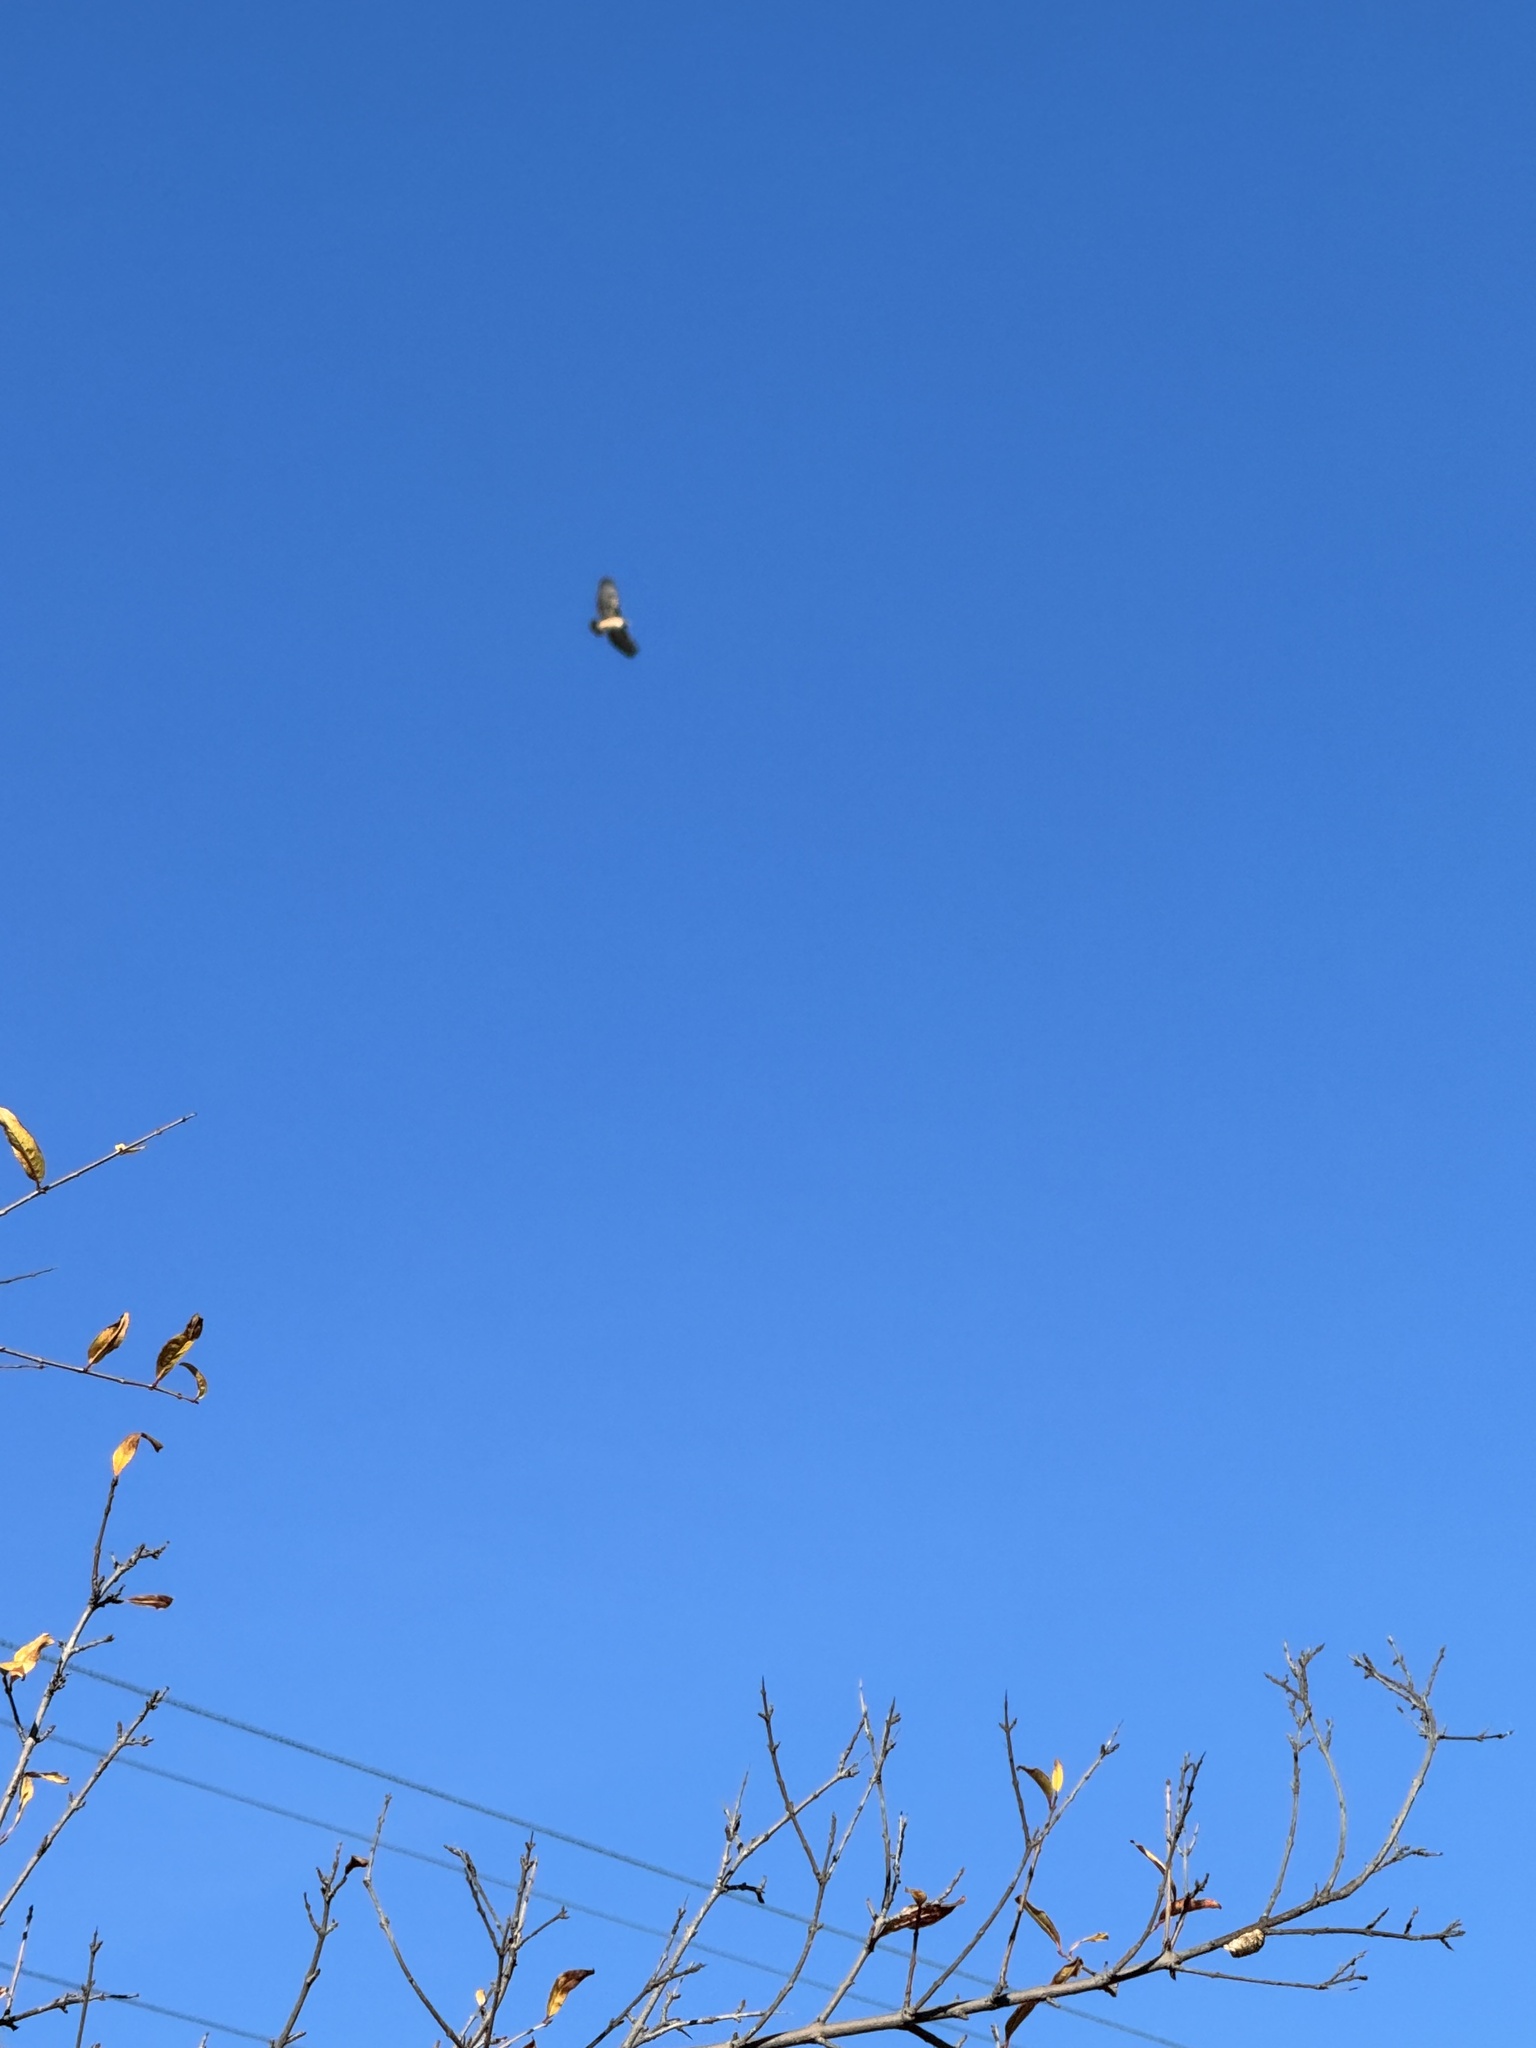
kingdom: Animalia
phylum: Chordata
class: Aves
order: Accipitriformes
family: Accipitridae
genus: Buteo
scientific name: Buteo jamaicensis
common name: Red-tailed hawk
